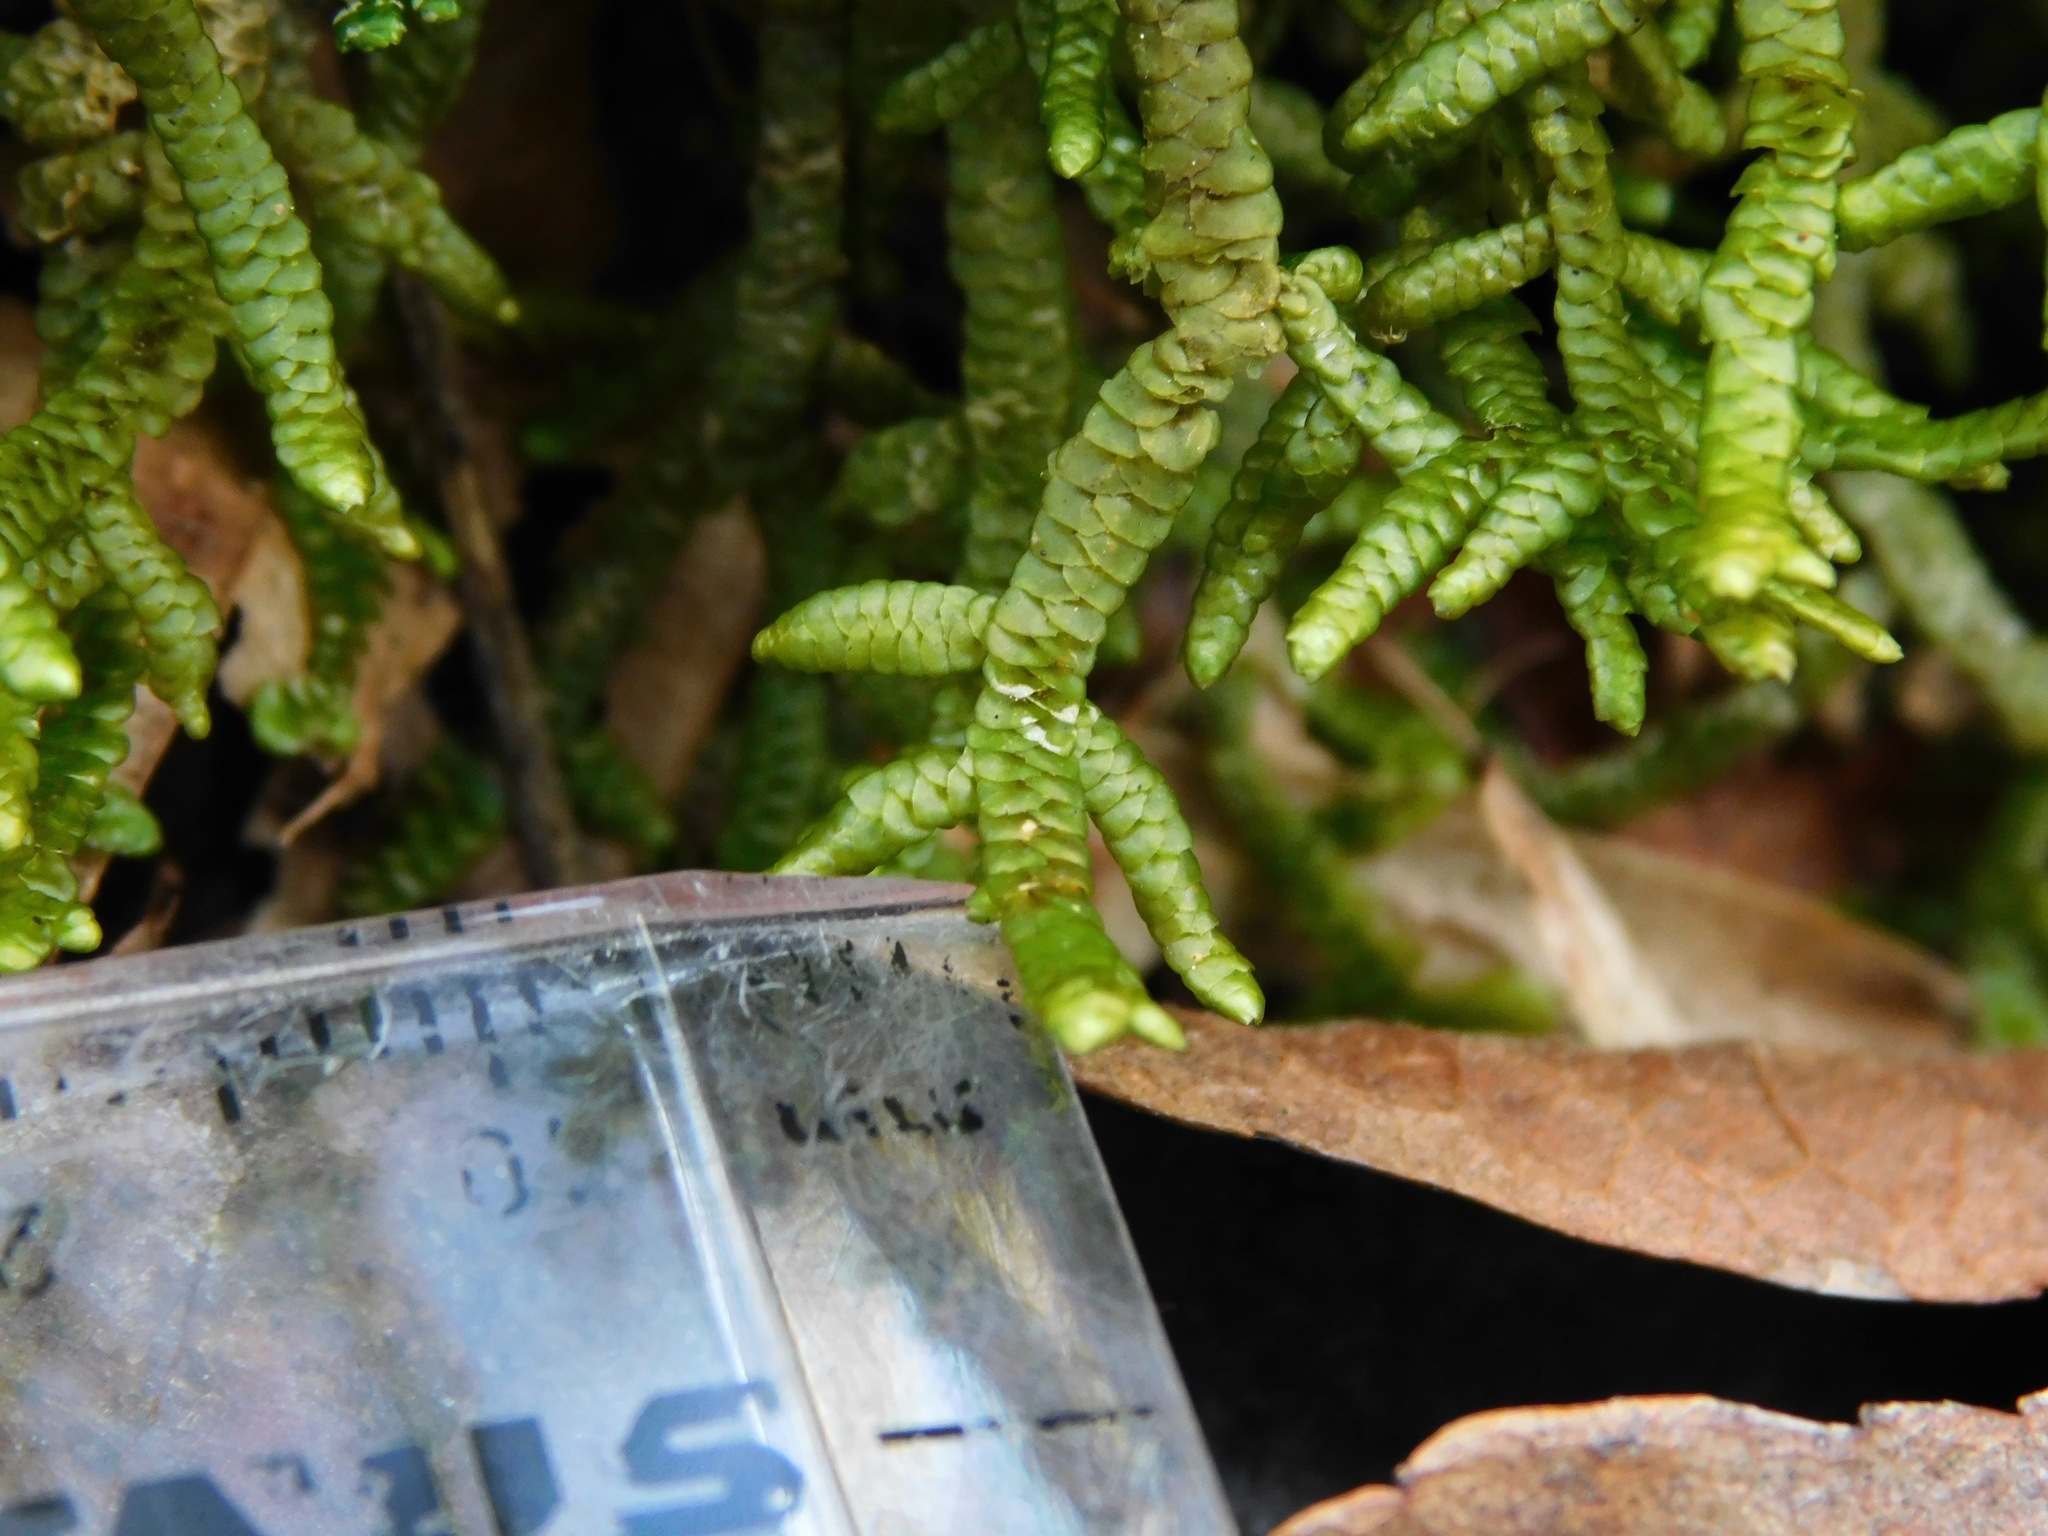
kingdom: Plantae
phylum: Marchantiophyta
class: Jungermanniopsida
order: Porellales
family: Porellaceae
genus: Porella
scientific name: Porella platyphylla
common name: Wall scalewort
